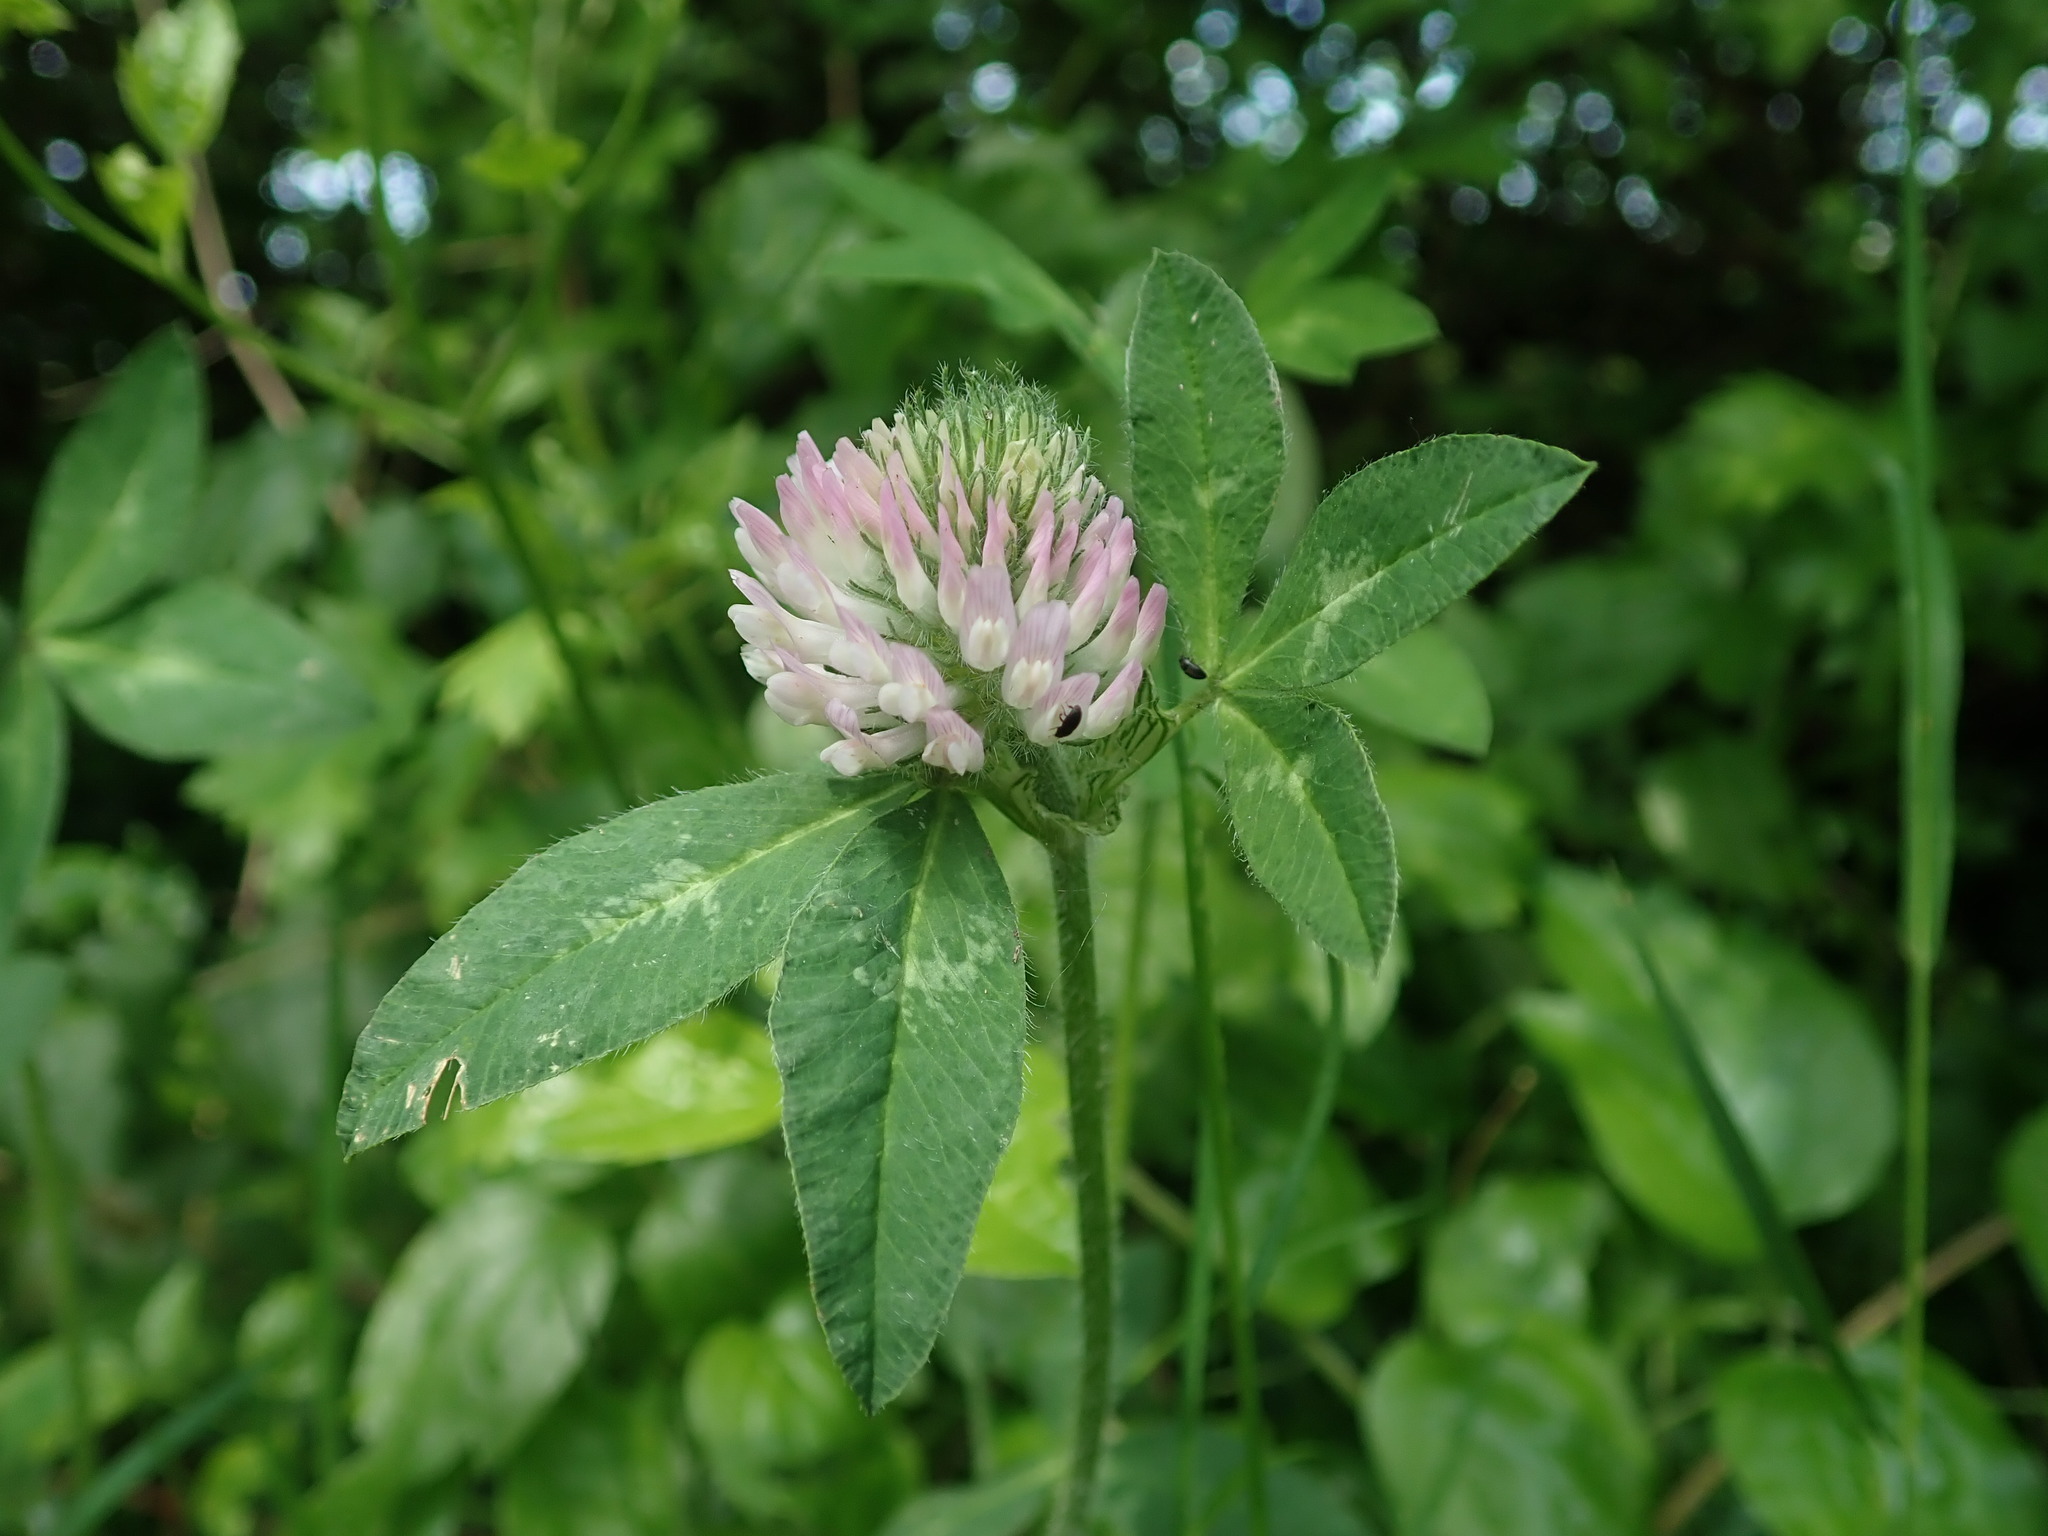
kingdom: Plantae
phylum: Tracheophyta
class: Magnoliopsida
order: Fabales
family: Fabaceae
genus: Trifolium
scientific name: Trifolium pratense
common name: Red clover
